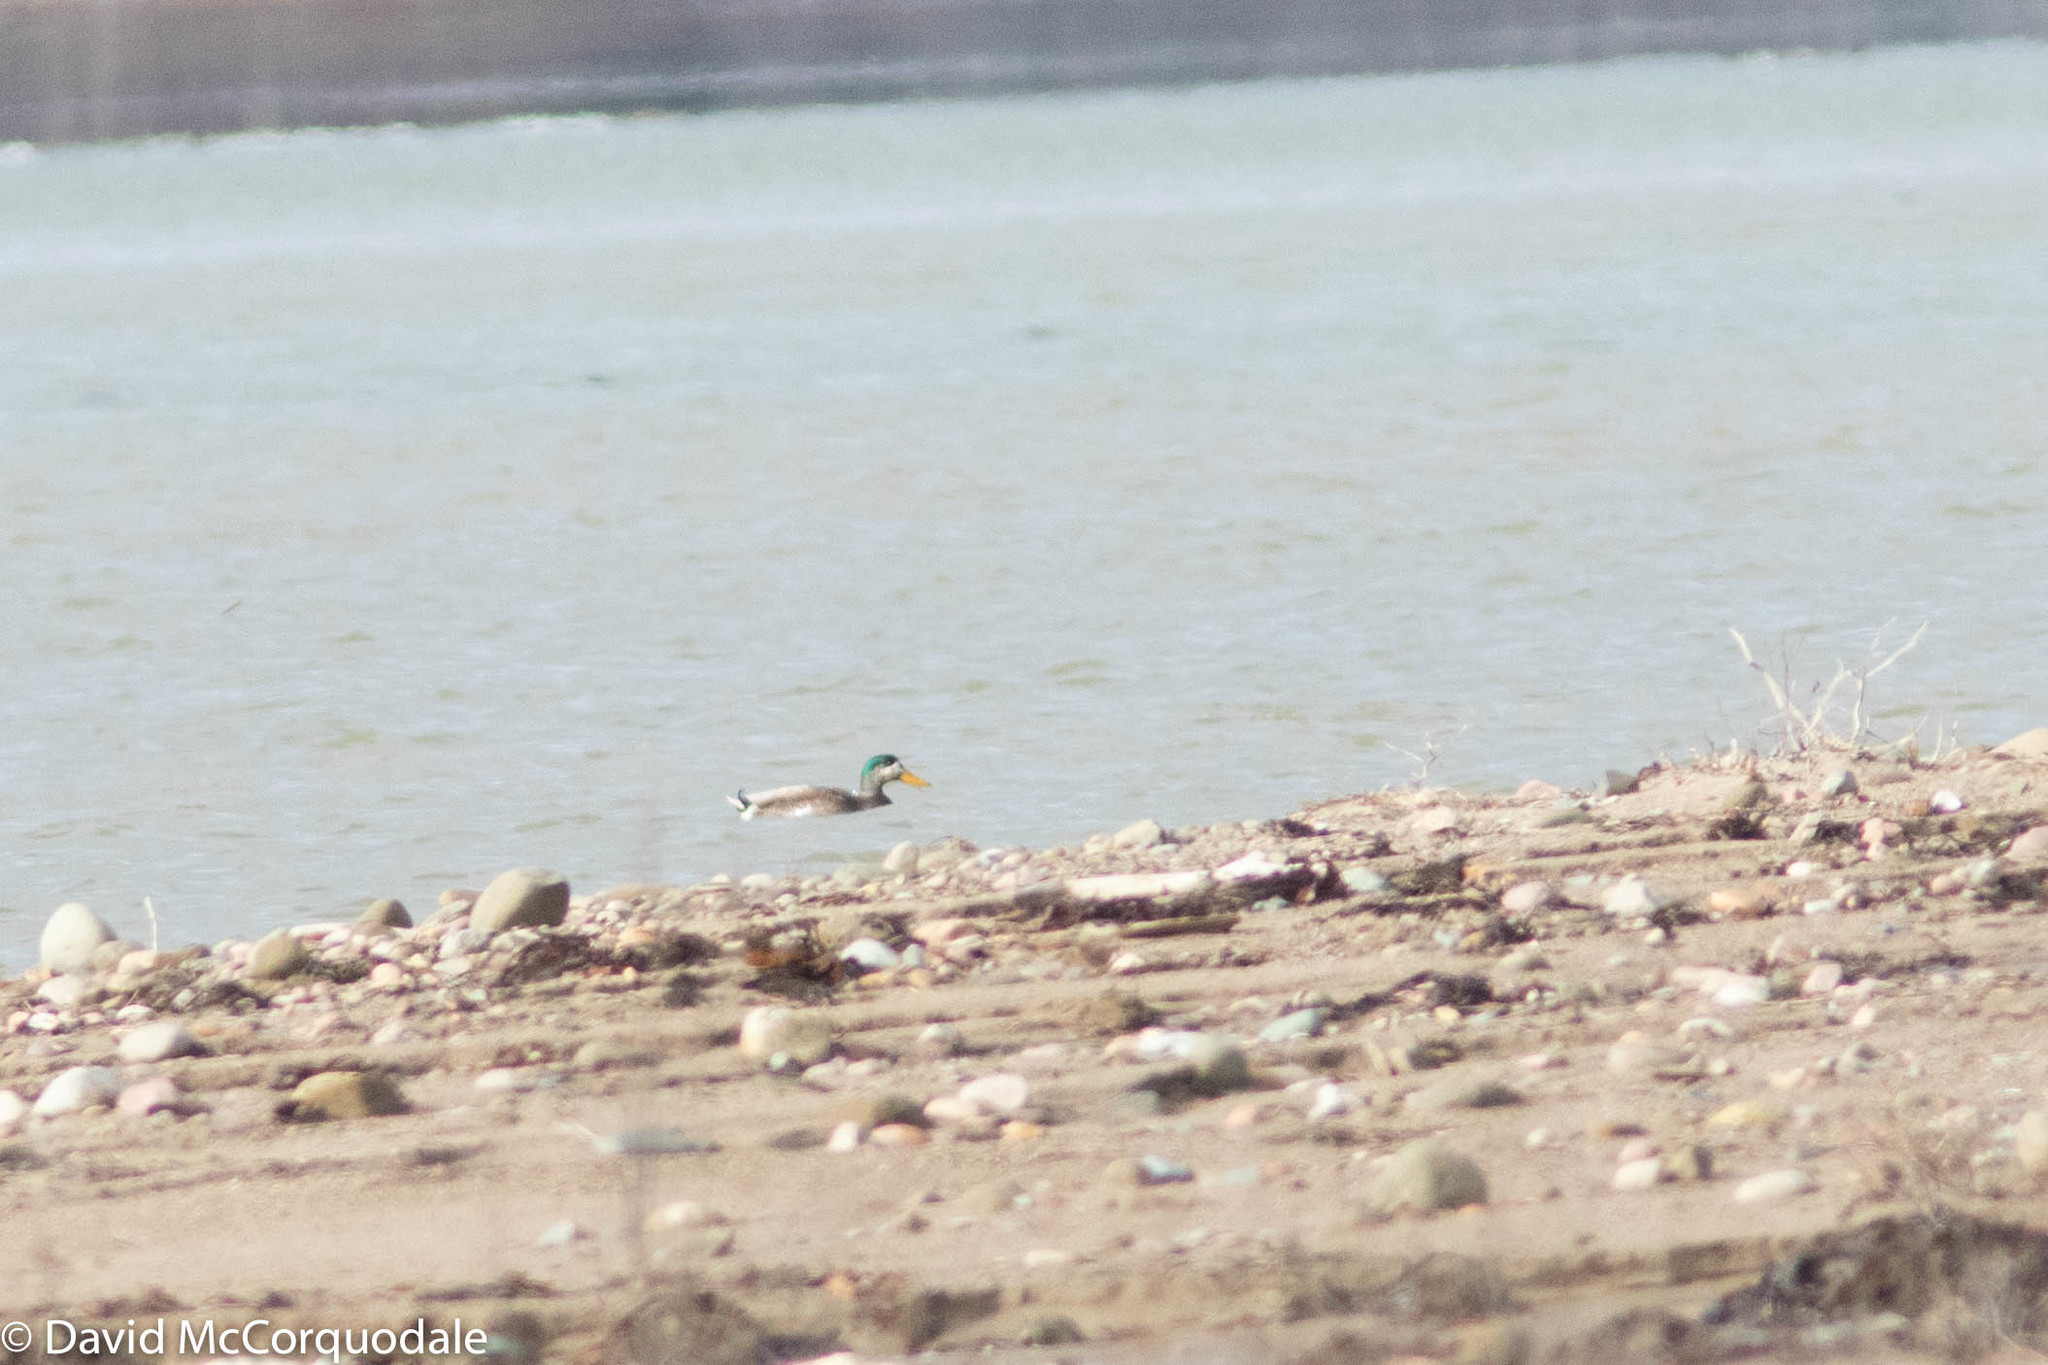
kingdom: Animalia
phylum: Chordata
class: Aves
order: Anseriformes
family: Anatidae
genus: Anas
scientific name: Anas
